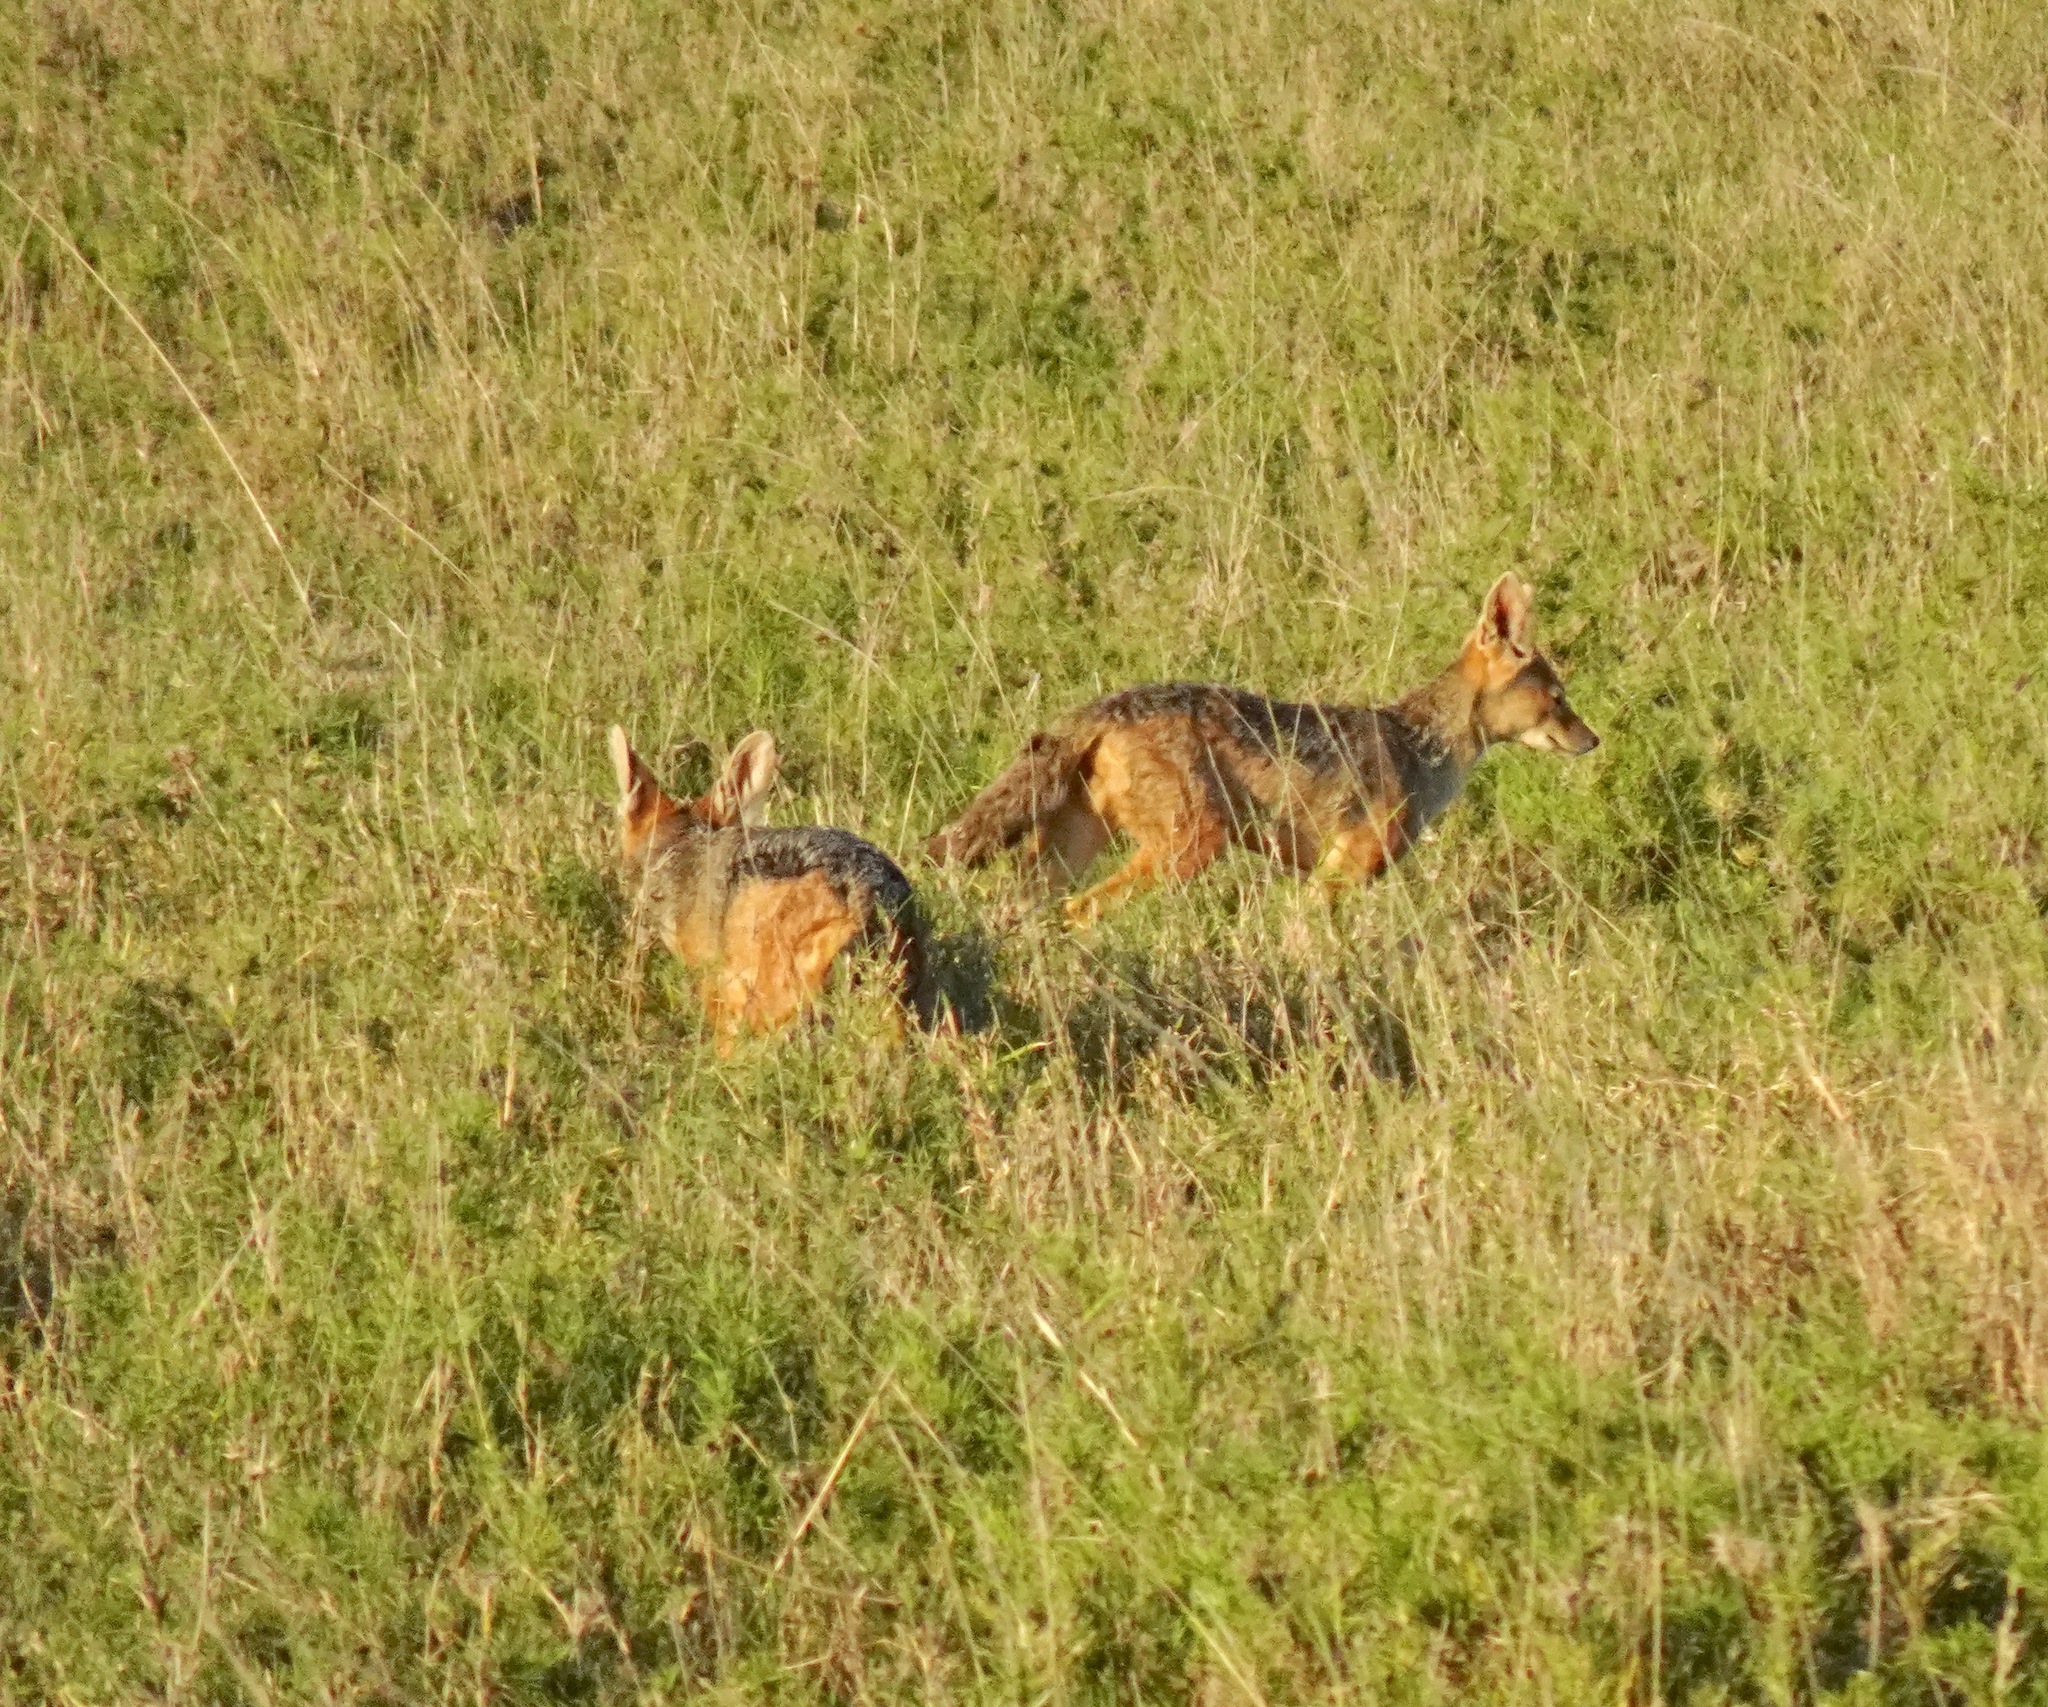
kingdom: Animalia
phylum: Chordata
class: Mammalia
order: Carnivora
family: Canidae
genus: Lupulella
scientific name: Lupulella
